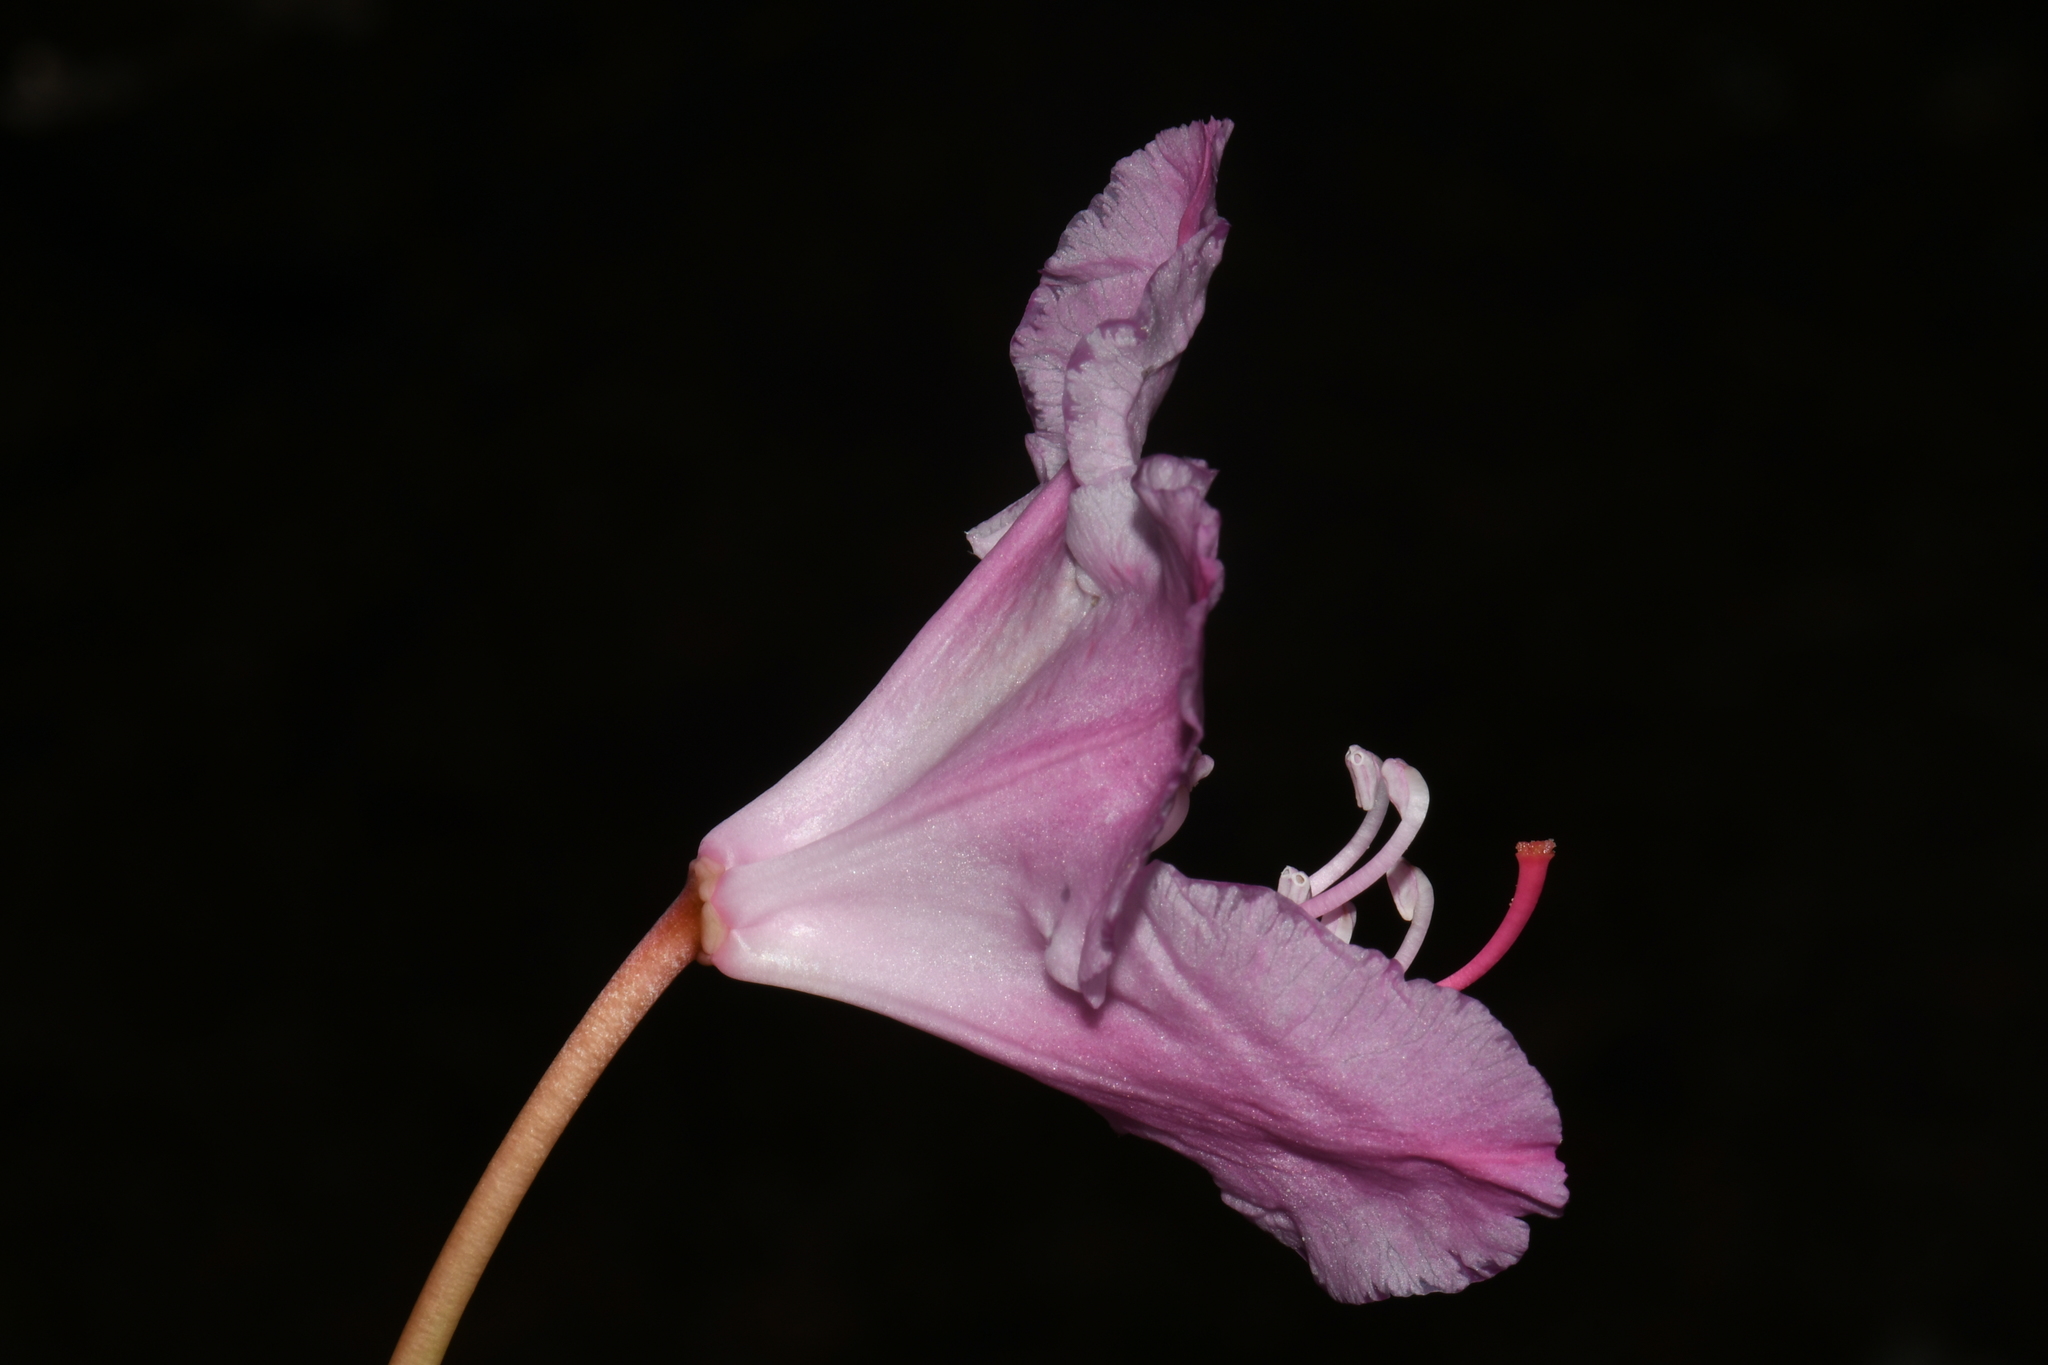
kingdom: Plantae
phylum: Tracheophyta
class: Magnoliopsida
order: Ericales
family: Ericaceae
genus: Rhododendron
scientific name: Rhododendron macrophyllum
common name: California rose bay
